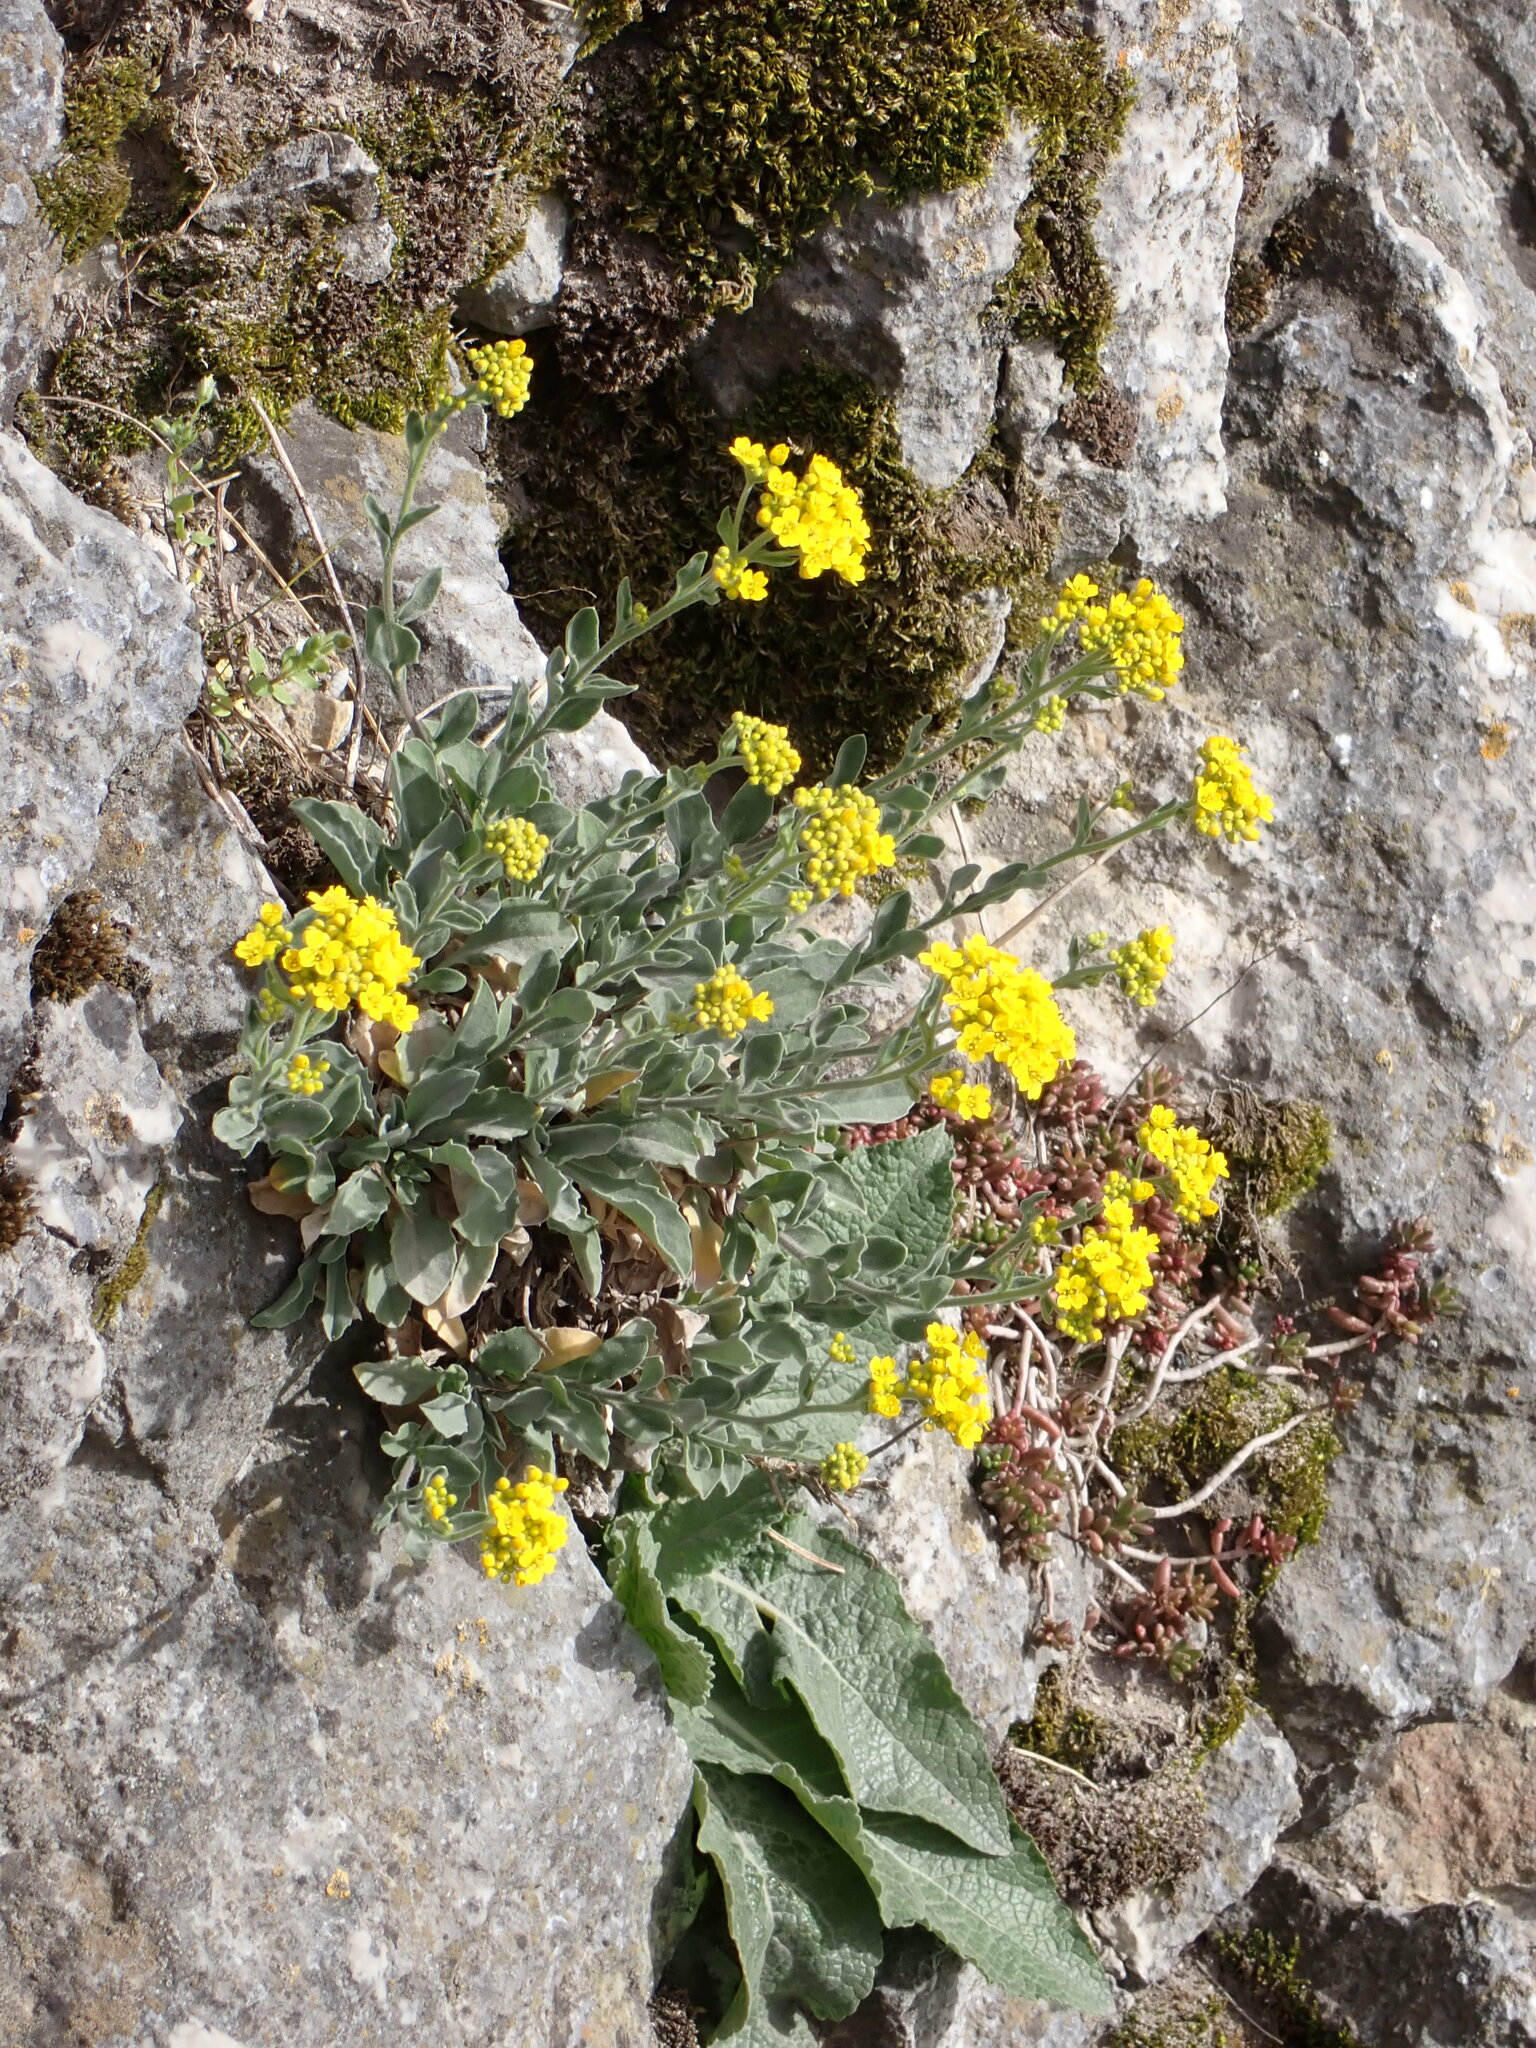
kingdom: Plantae
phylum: Tracheophyta
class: Magnoliopsida
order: Brassicales
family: Brassicaceae
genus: Aurinia
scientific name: Aurinia saxatilis
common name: Golden-tuft alyssum
